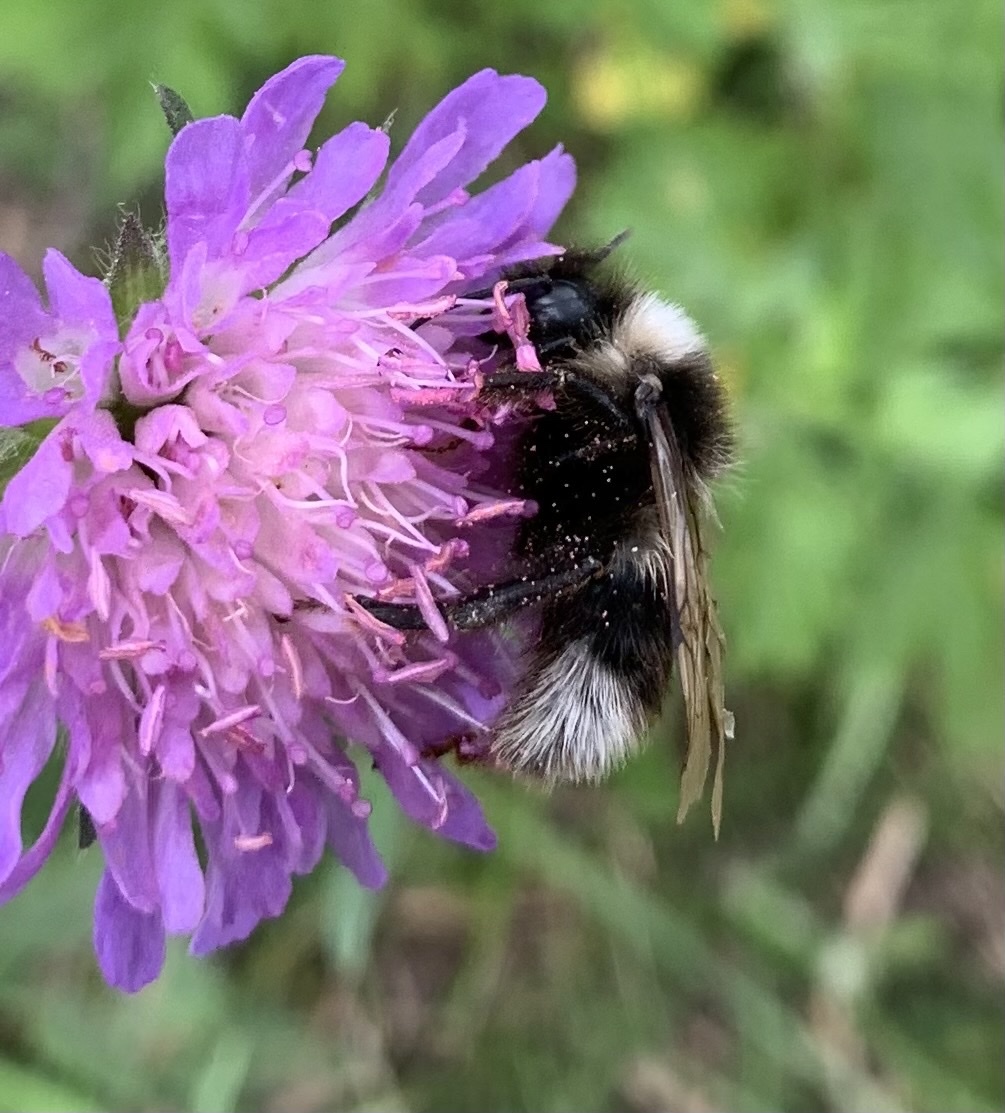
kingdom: Animalia
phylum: Arthropoda
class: Insecta
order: Hymenoptera
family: Apidae
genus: Bombus
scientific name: Bombus bohemicus
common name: Gypsy cuckoo bee
